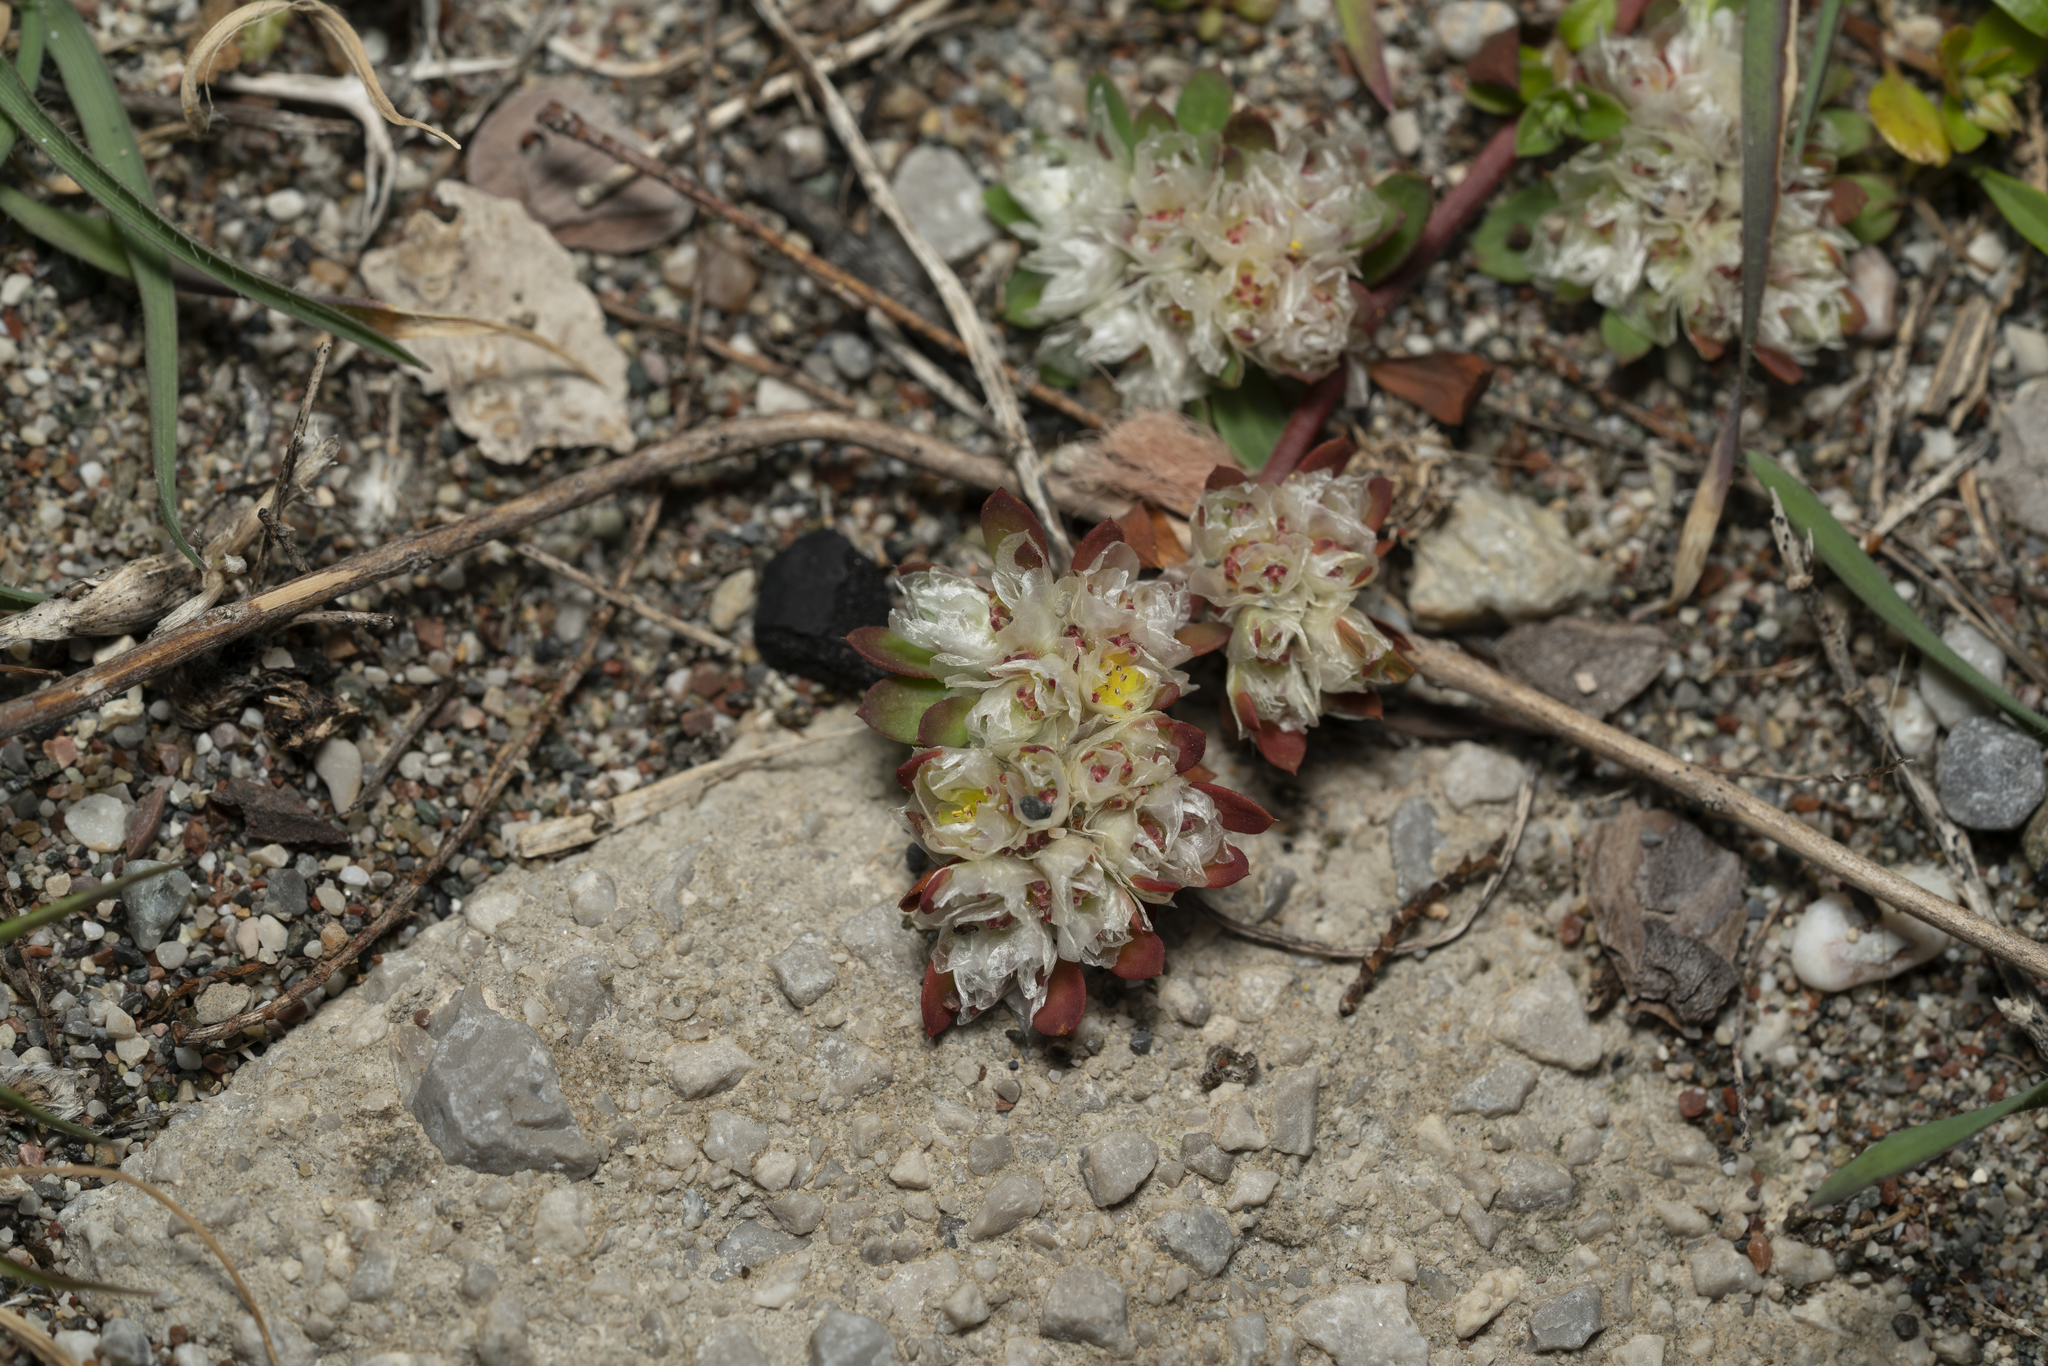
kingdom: Plantae
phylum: Tracheophyta
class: Magnoliopsida
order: Caryophyllales
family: Caryophyllaceae
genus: Paronychia
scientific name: Paronychia argentea
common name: Silver nailroot
